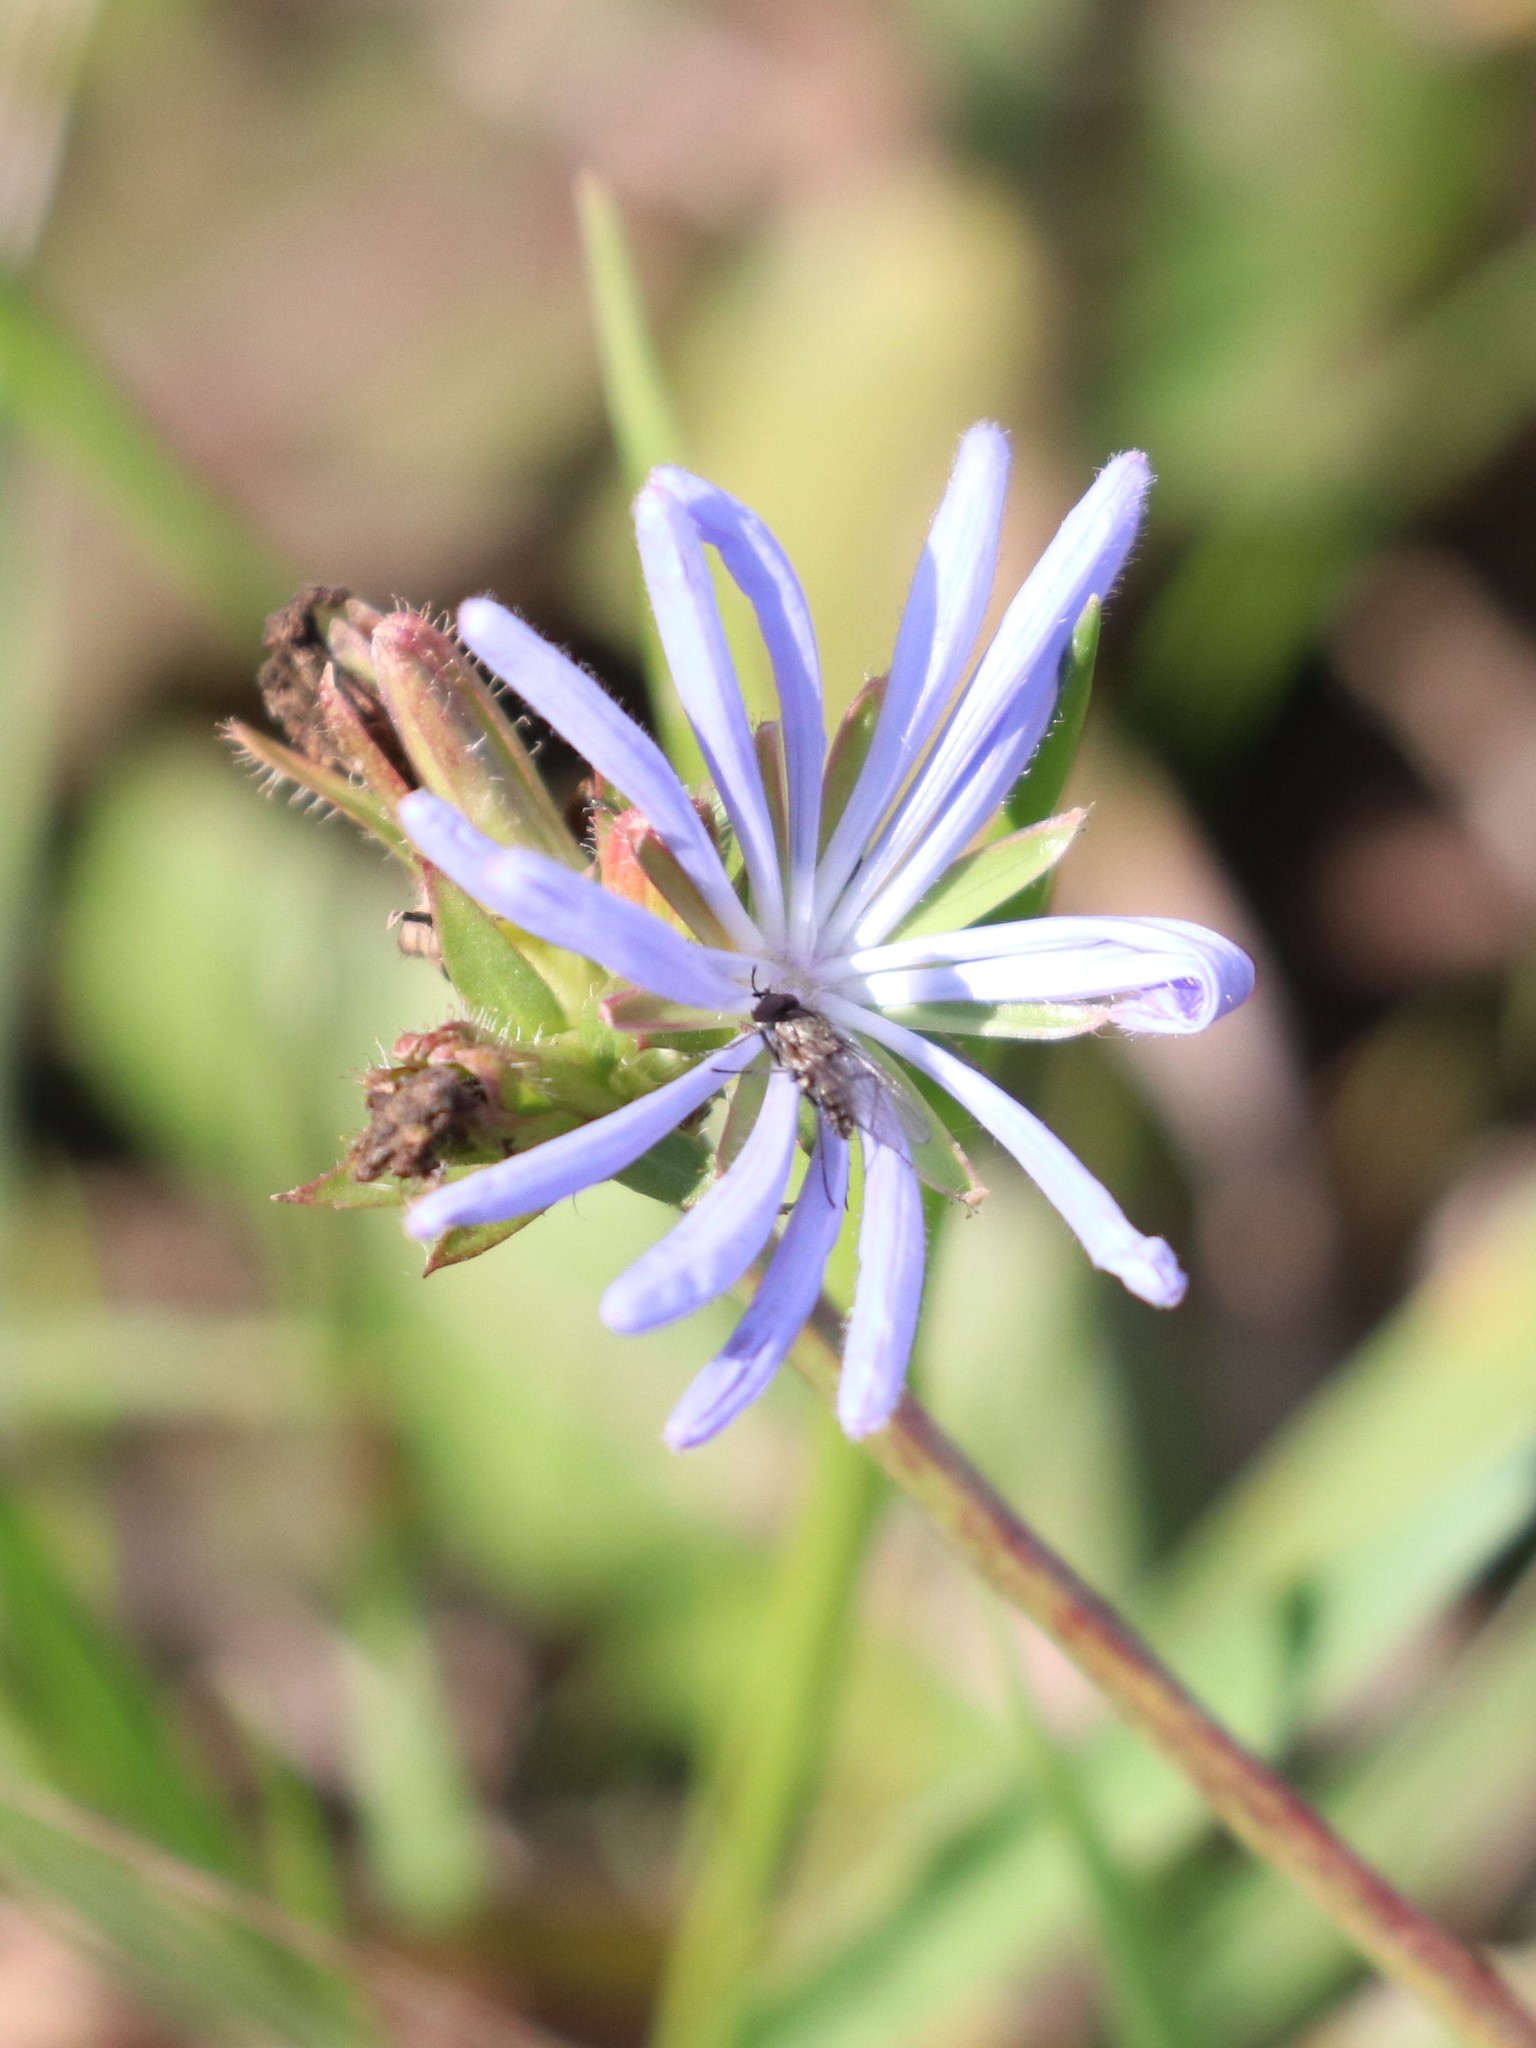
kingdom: Plantae
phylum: Tracheophyta
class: Magnoliopsida
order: Asterales
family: Asteraceae
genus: Cichorium
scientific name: Cichorium intybus
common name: Chicory
